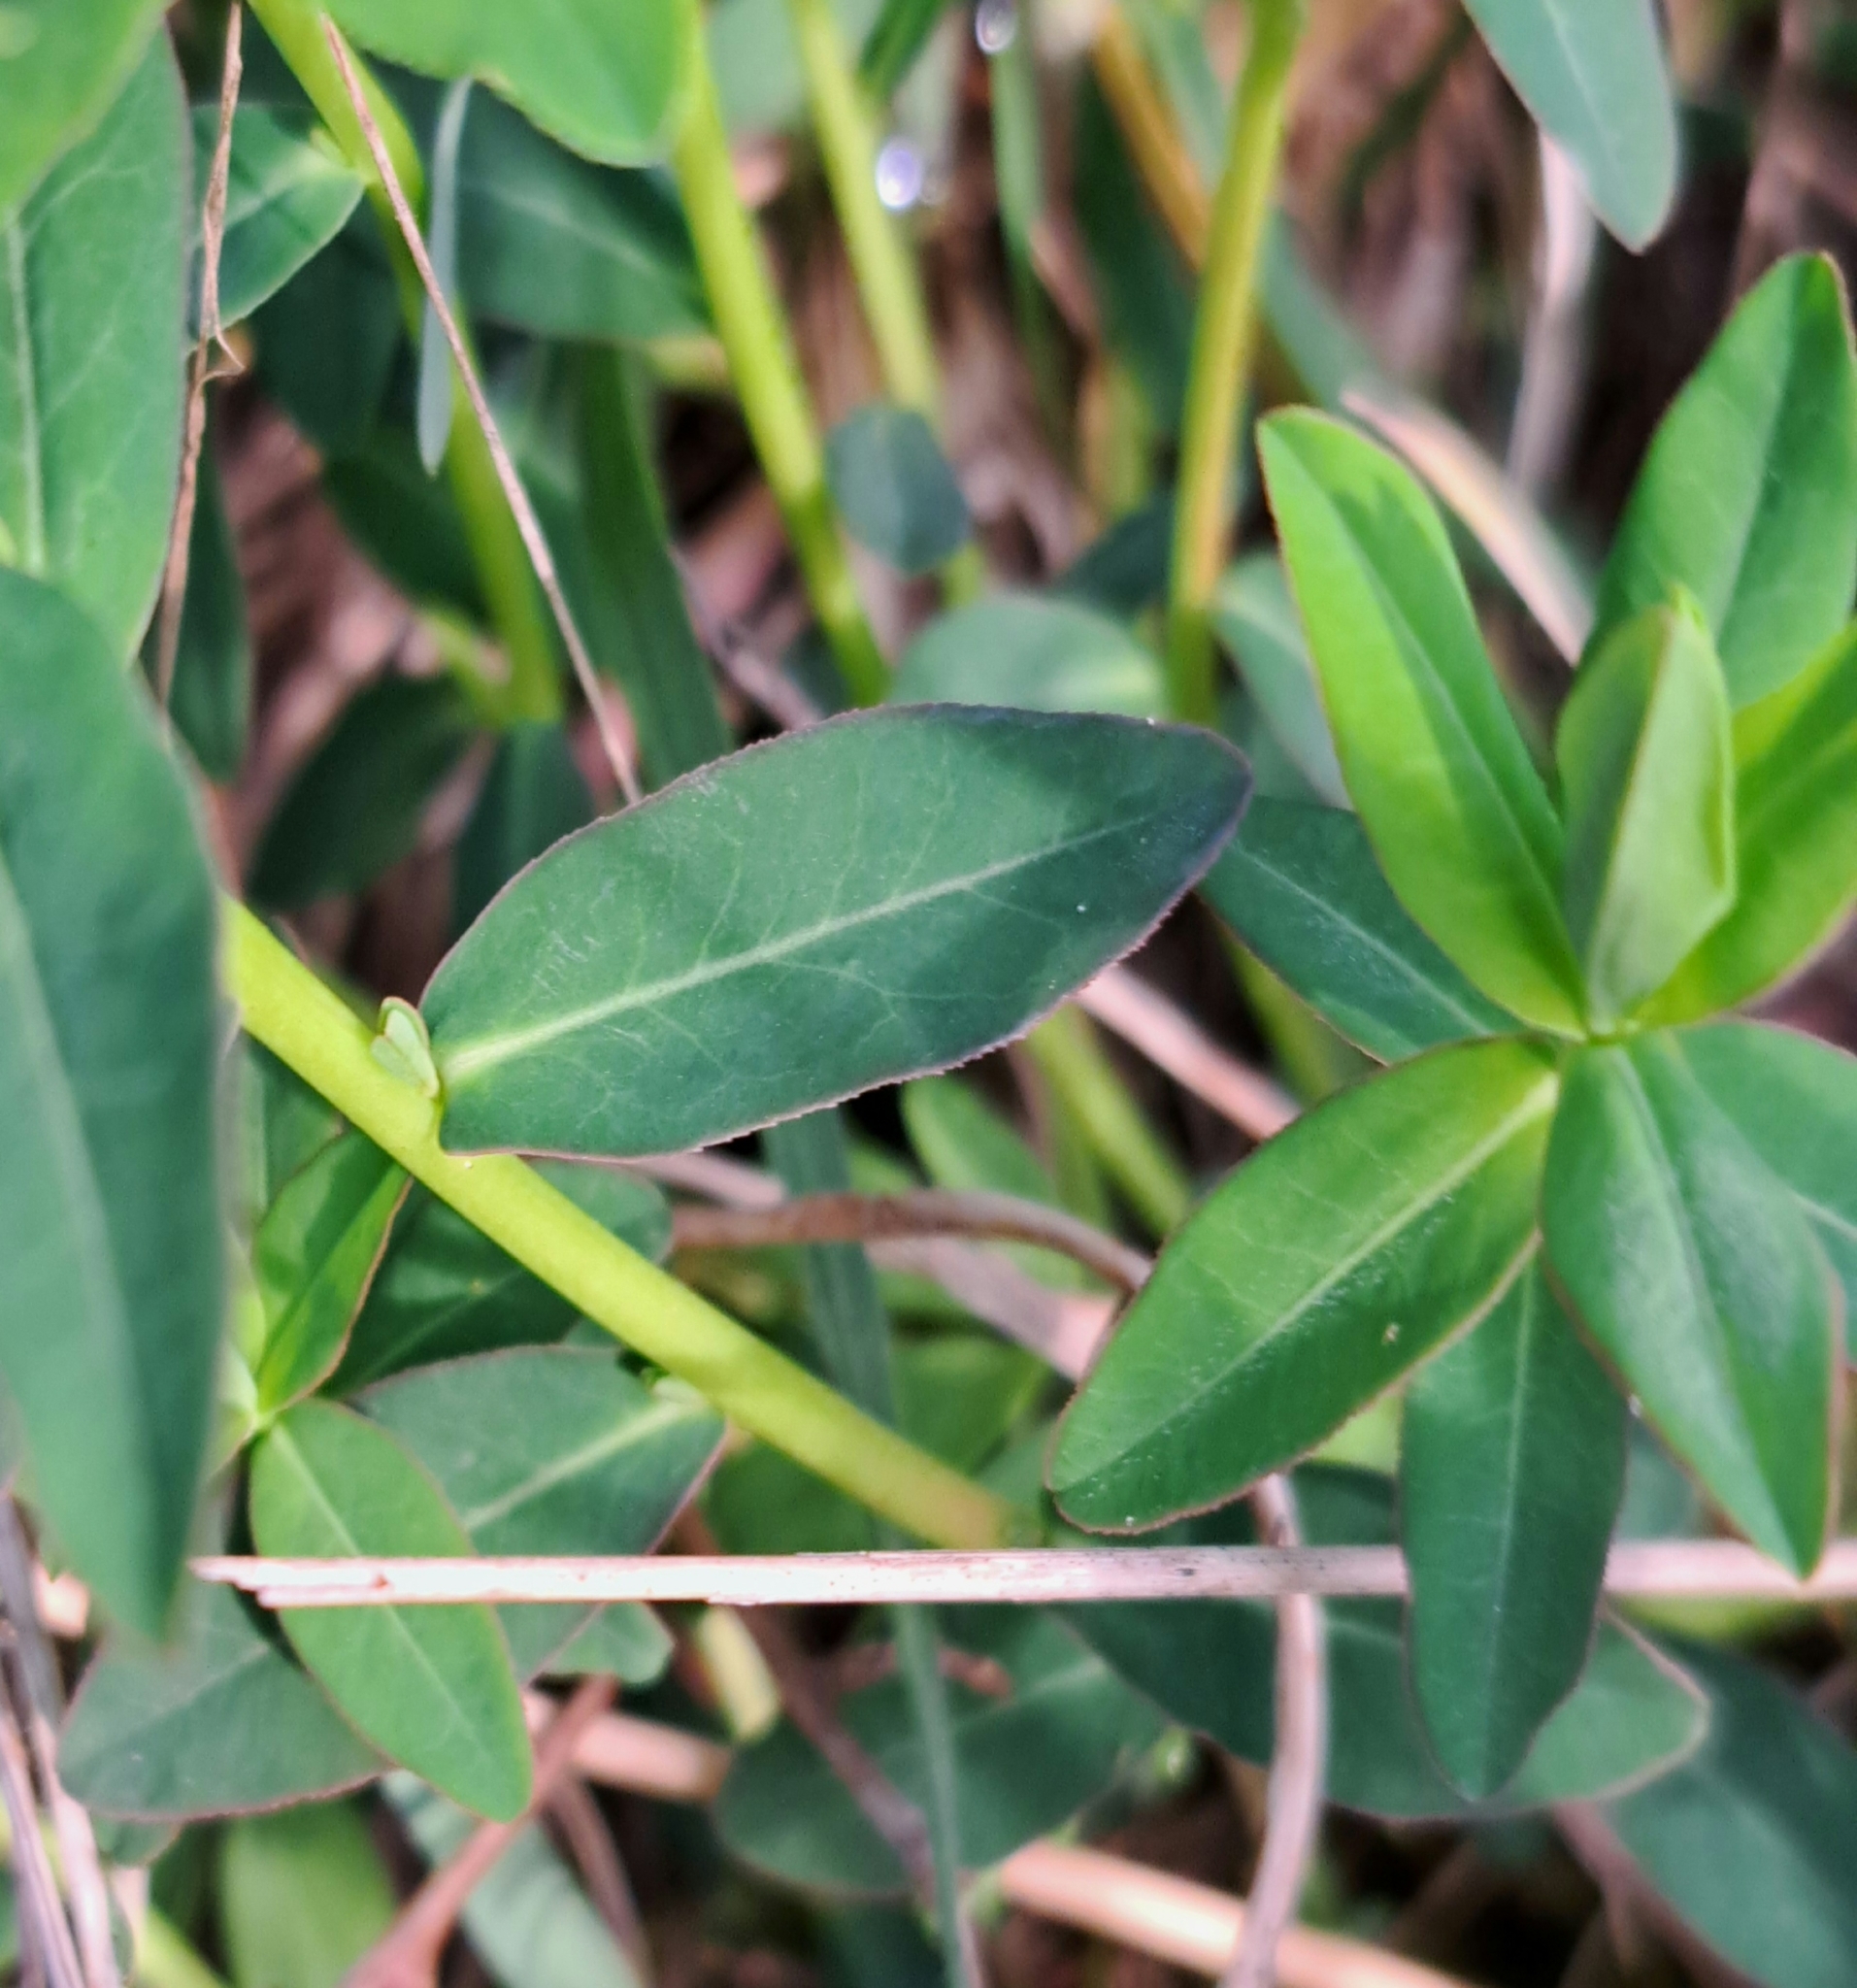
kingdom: Plantae
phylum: Tracheophyta
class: Magnoliopsida
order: Malpighiales
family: Euphorbiaceae
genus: Euphorbia
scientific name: Euphorbia verrucosa
